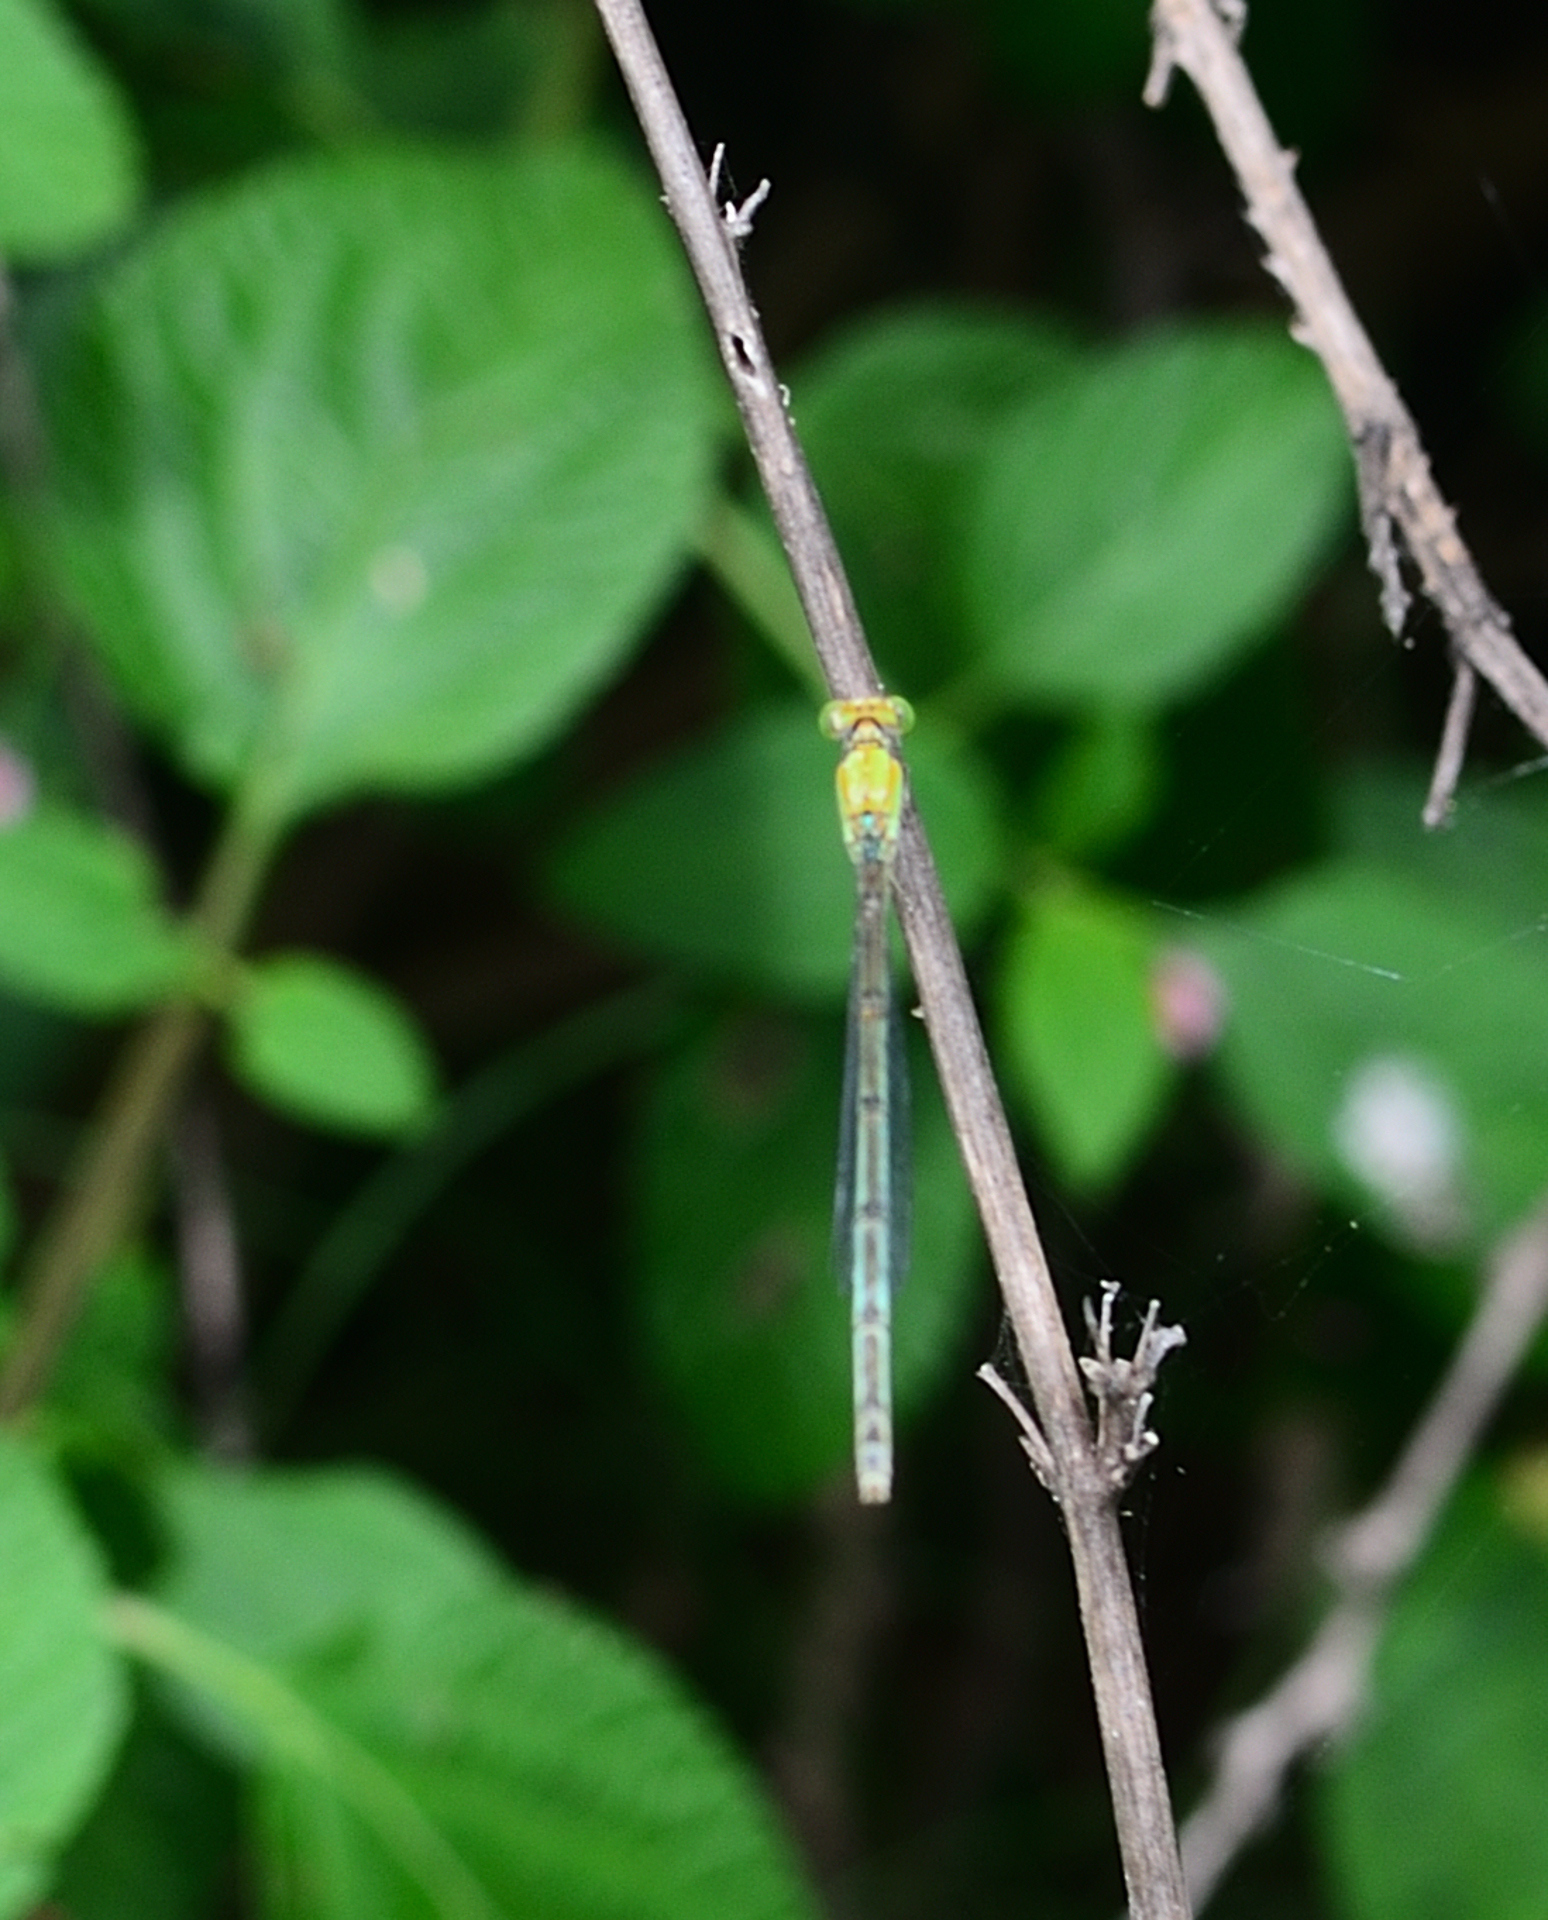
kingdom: Animalia
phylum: Arthropoda
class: Insecta
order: Odonata
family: Coenagrionidae
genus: Pseudagrion
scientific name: Pseudagrion decorum
